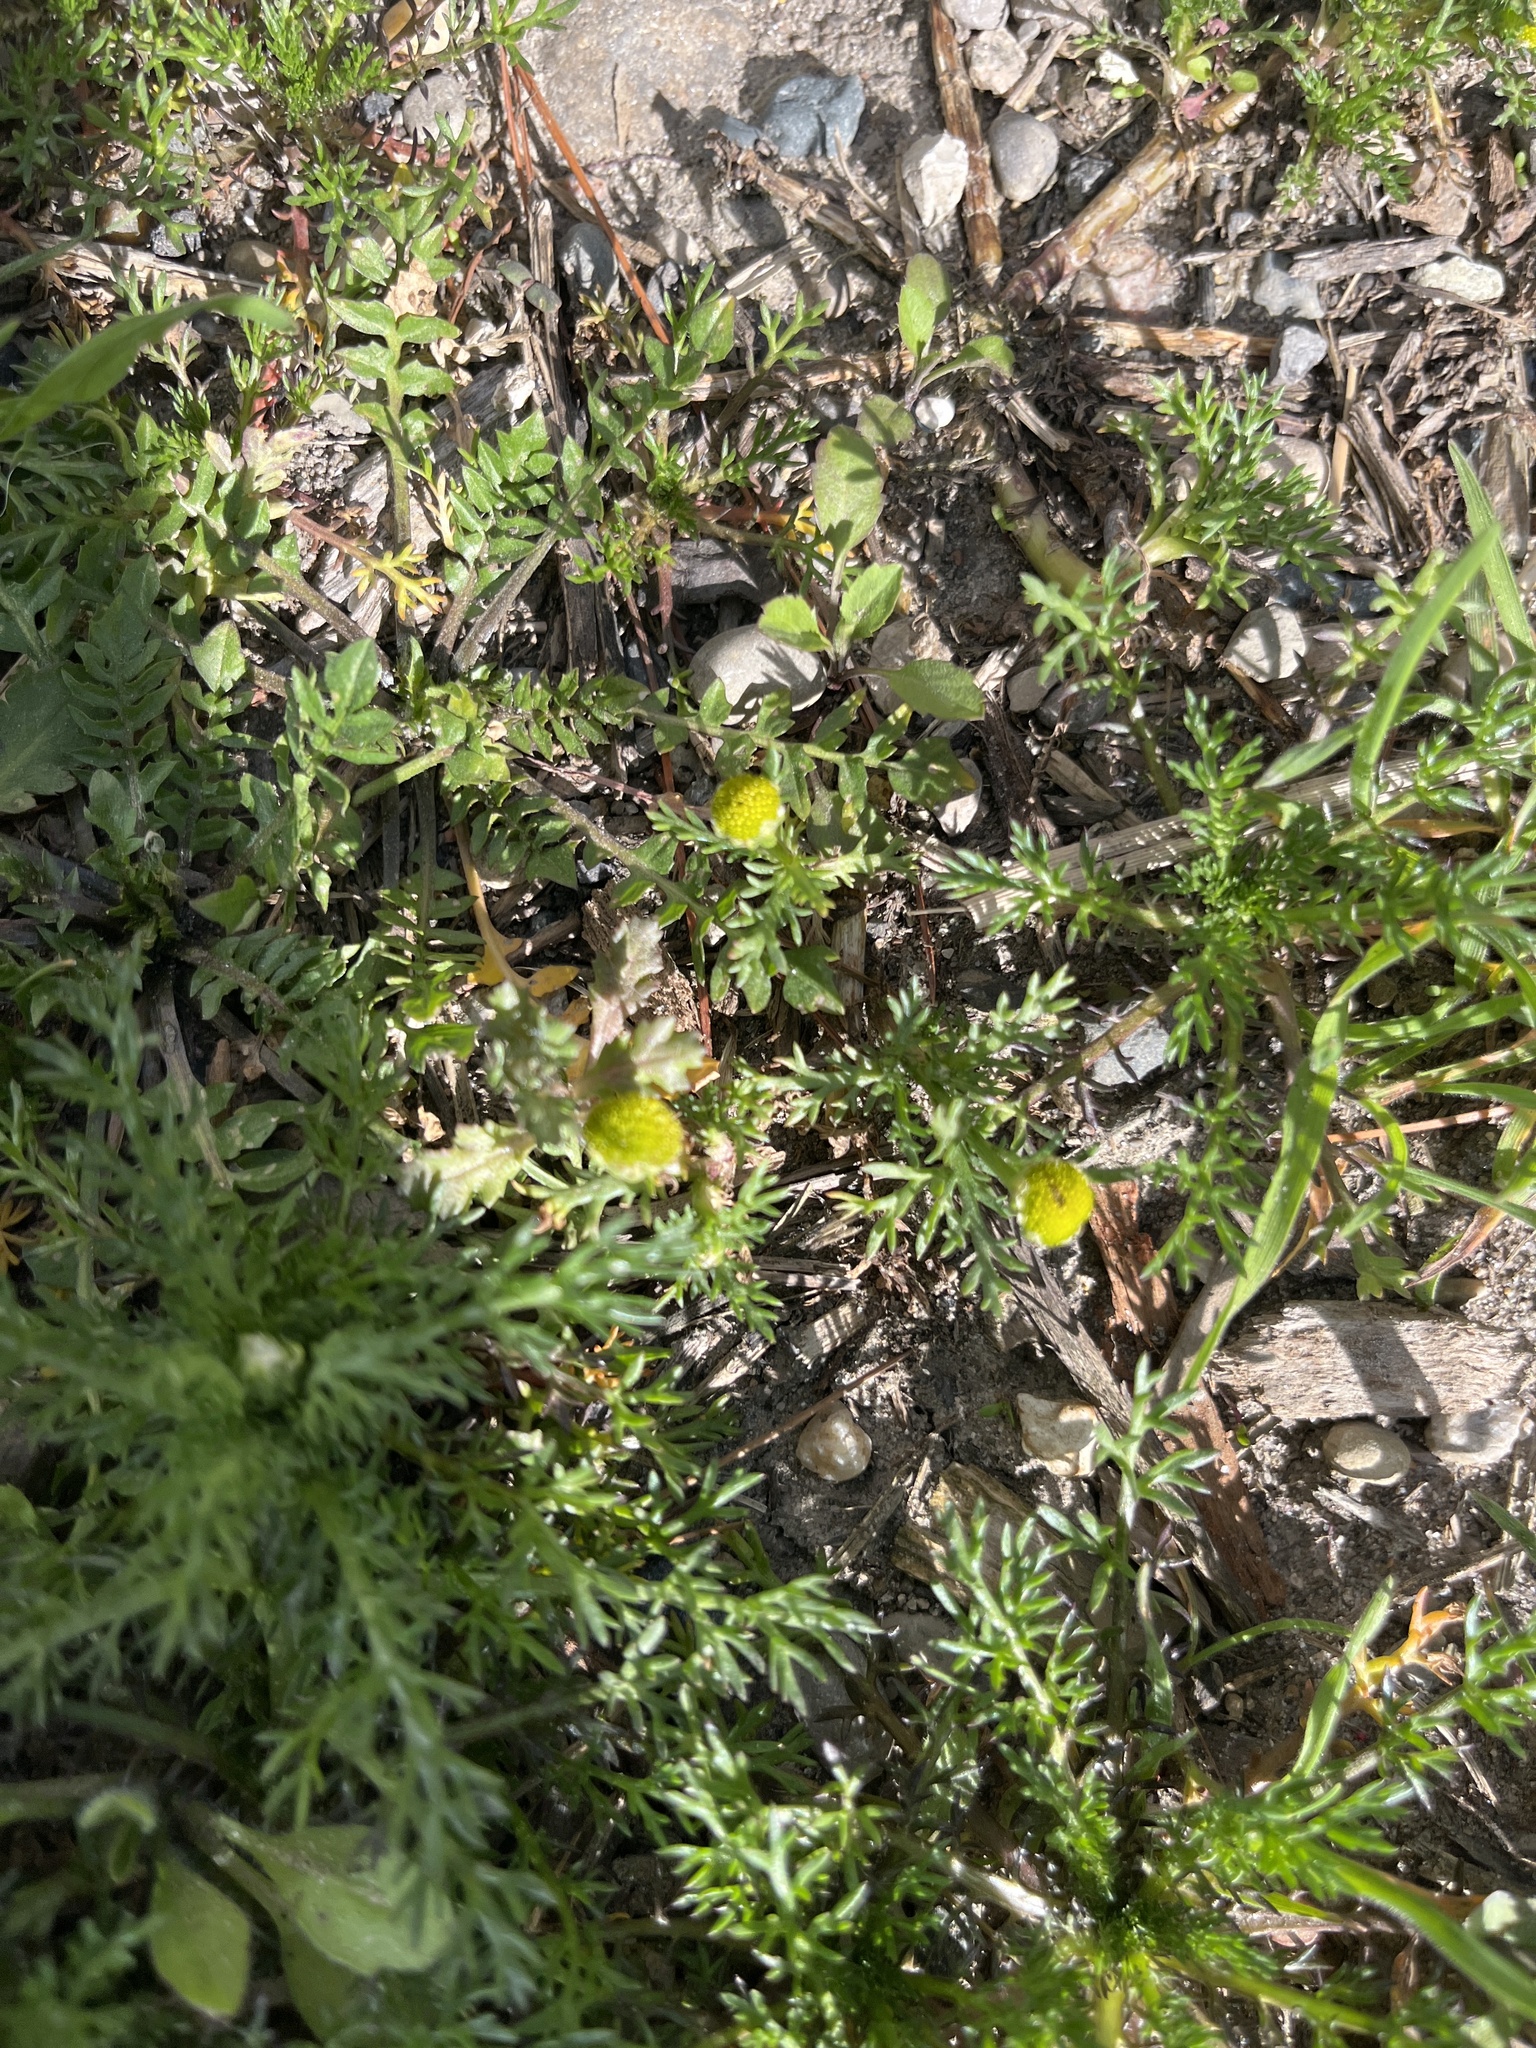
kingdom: Plantae
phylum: Tracheophyta
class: Magnoliopsida
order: Asterales
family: Asteraceae
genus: Matricaria
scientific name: Matricaria discoidea
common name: Disc mayweed
